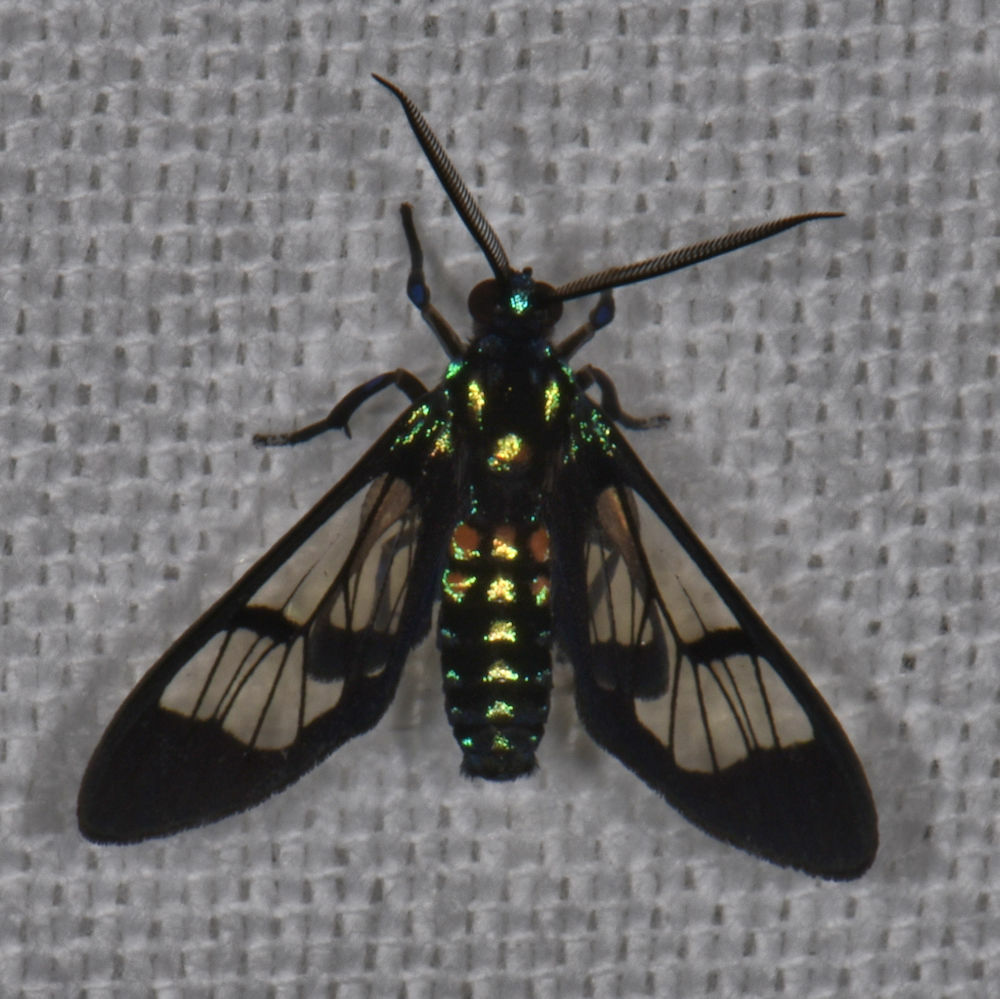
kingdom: Animalia
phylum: Arthropoda
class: Insecta
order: Lepidoptera
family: Erebidae
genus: Cosmosoma
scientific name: Cosmosoma xanthosticta
